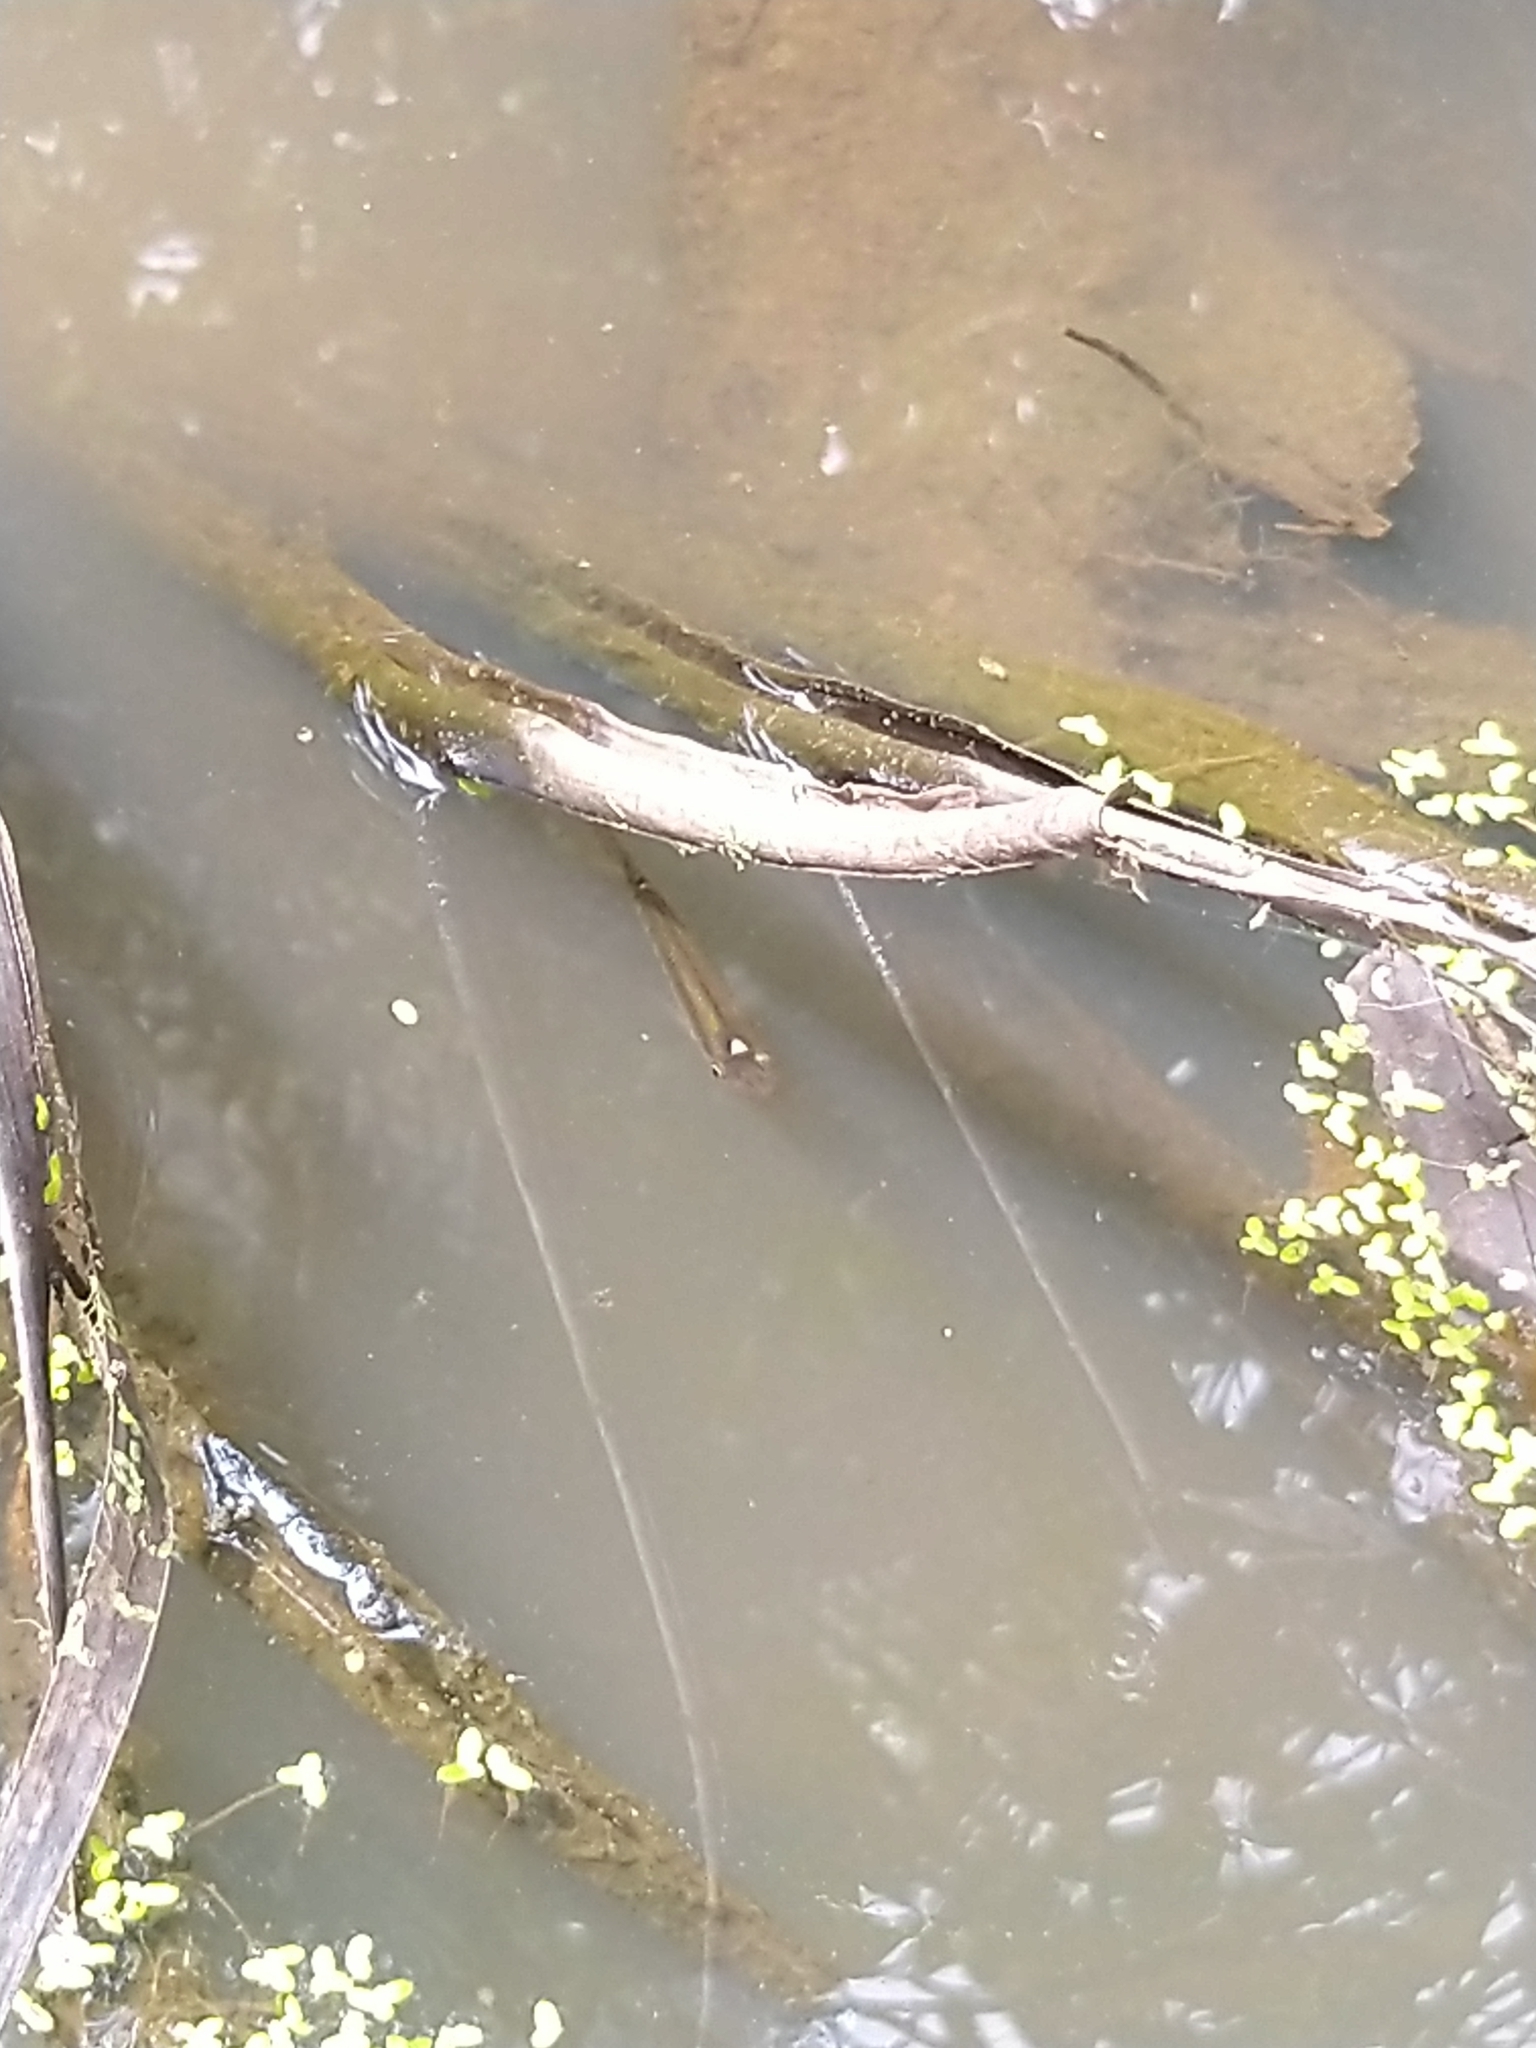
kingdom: Animalia
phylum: Chordata
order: Cyprinodontiformes
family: Aplocheilidae
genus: Aplocheilus
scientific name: Aplocheilus lineatus
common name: Striped panchax
